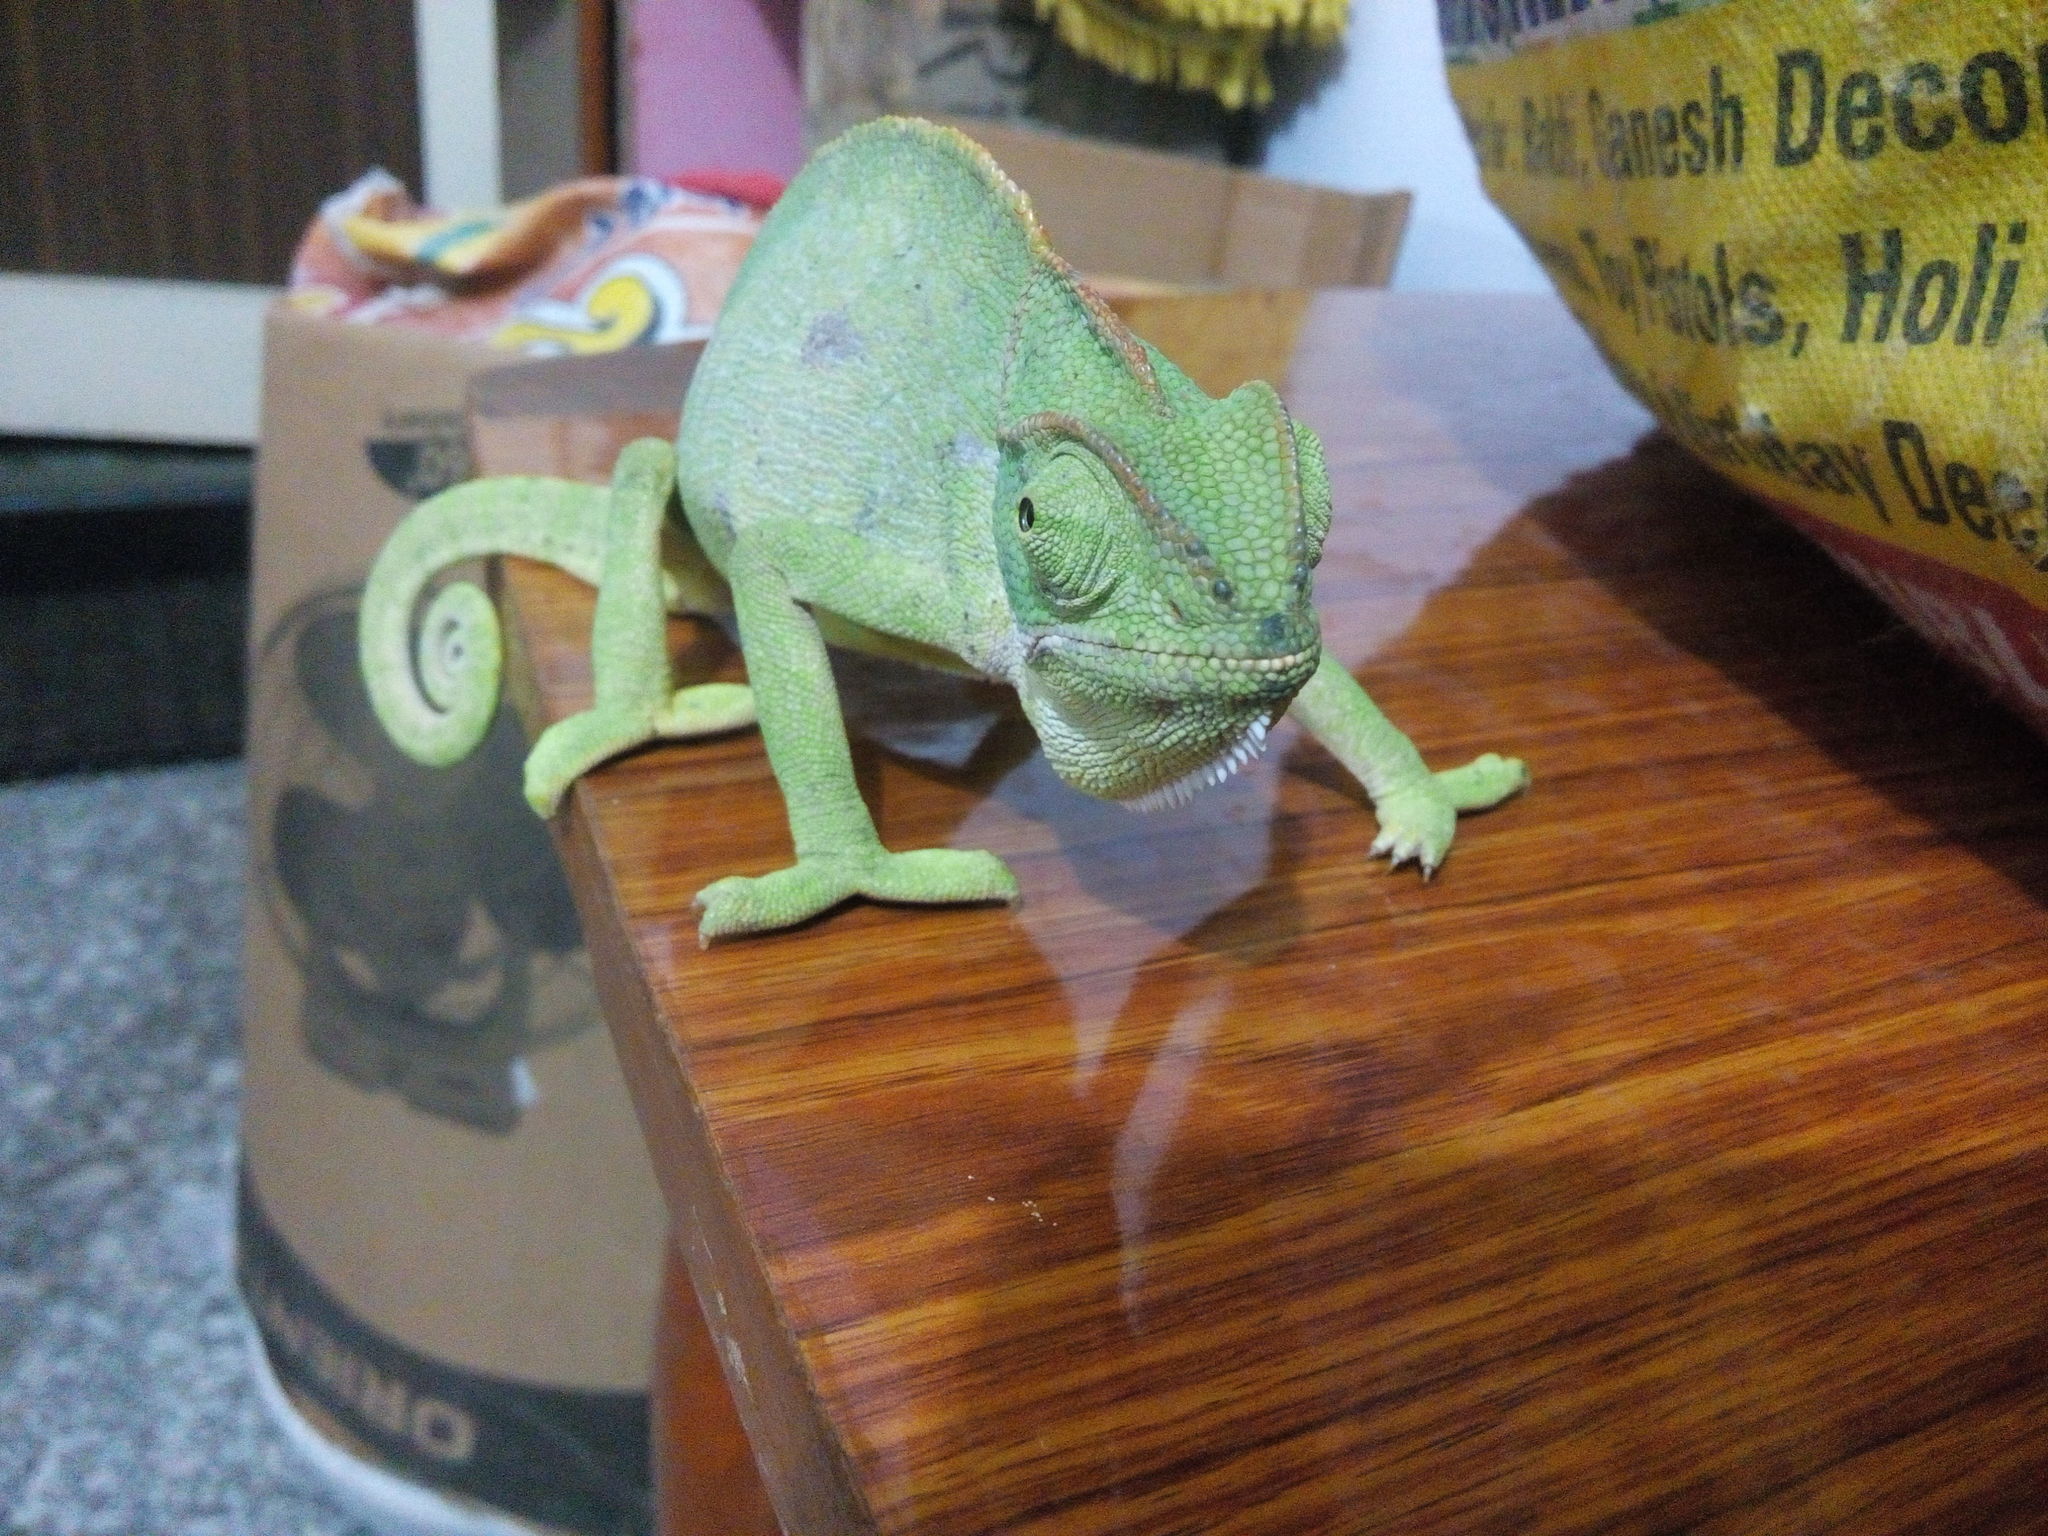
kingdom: Animalia
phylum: Chordata
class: Squamata
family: Chamaeleonidae
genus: Chamaeleo
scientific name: Chamaeleo zeylanicus
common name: Indian chameleon
